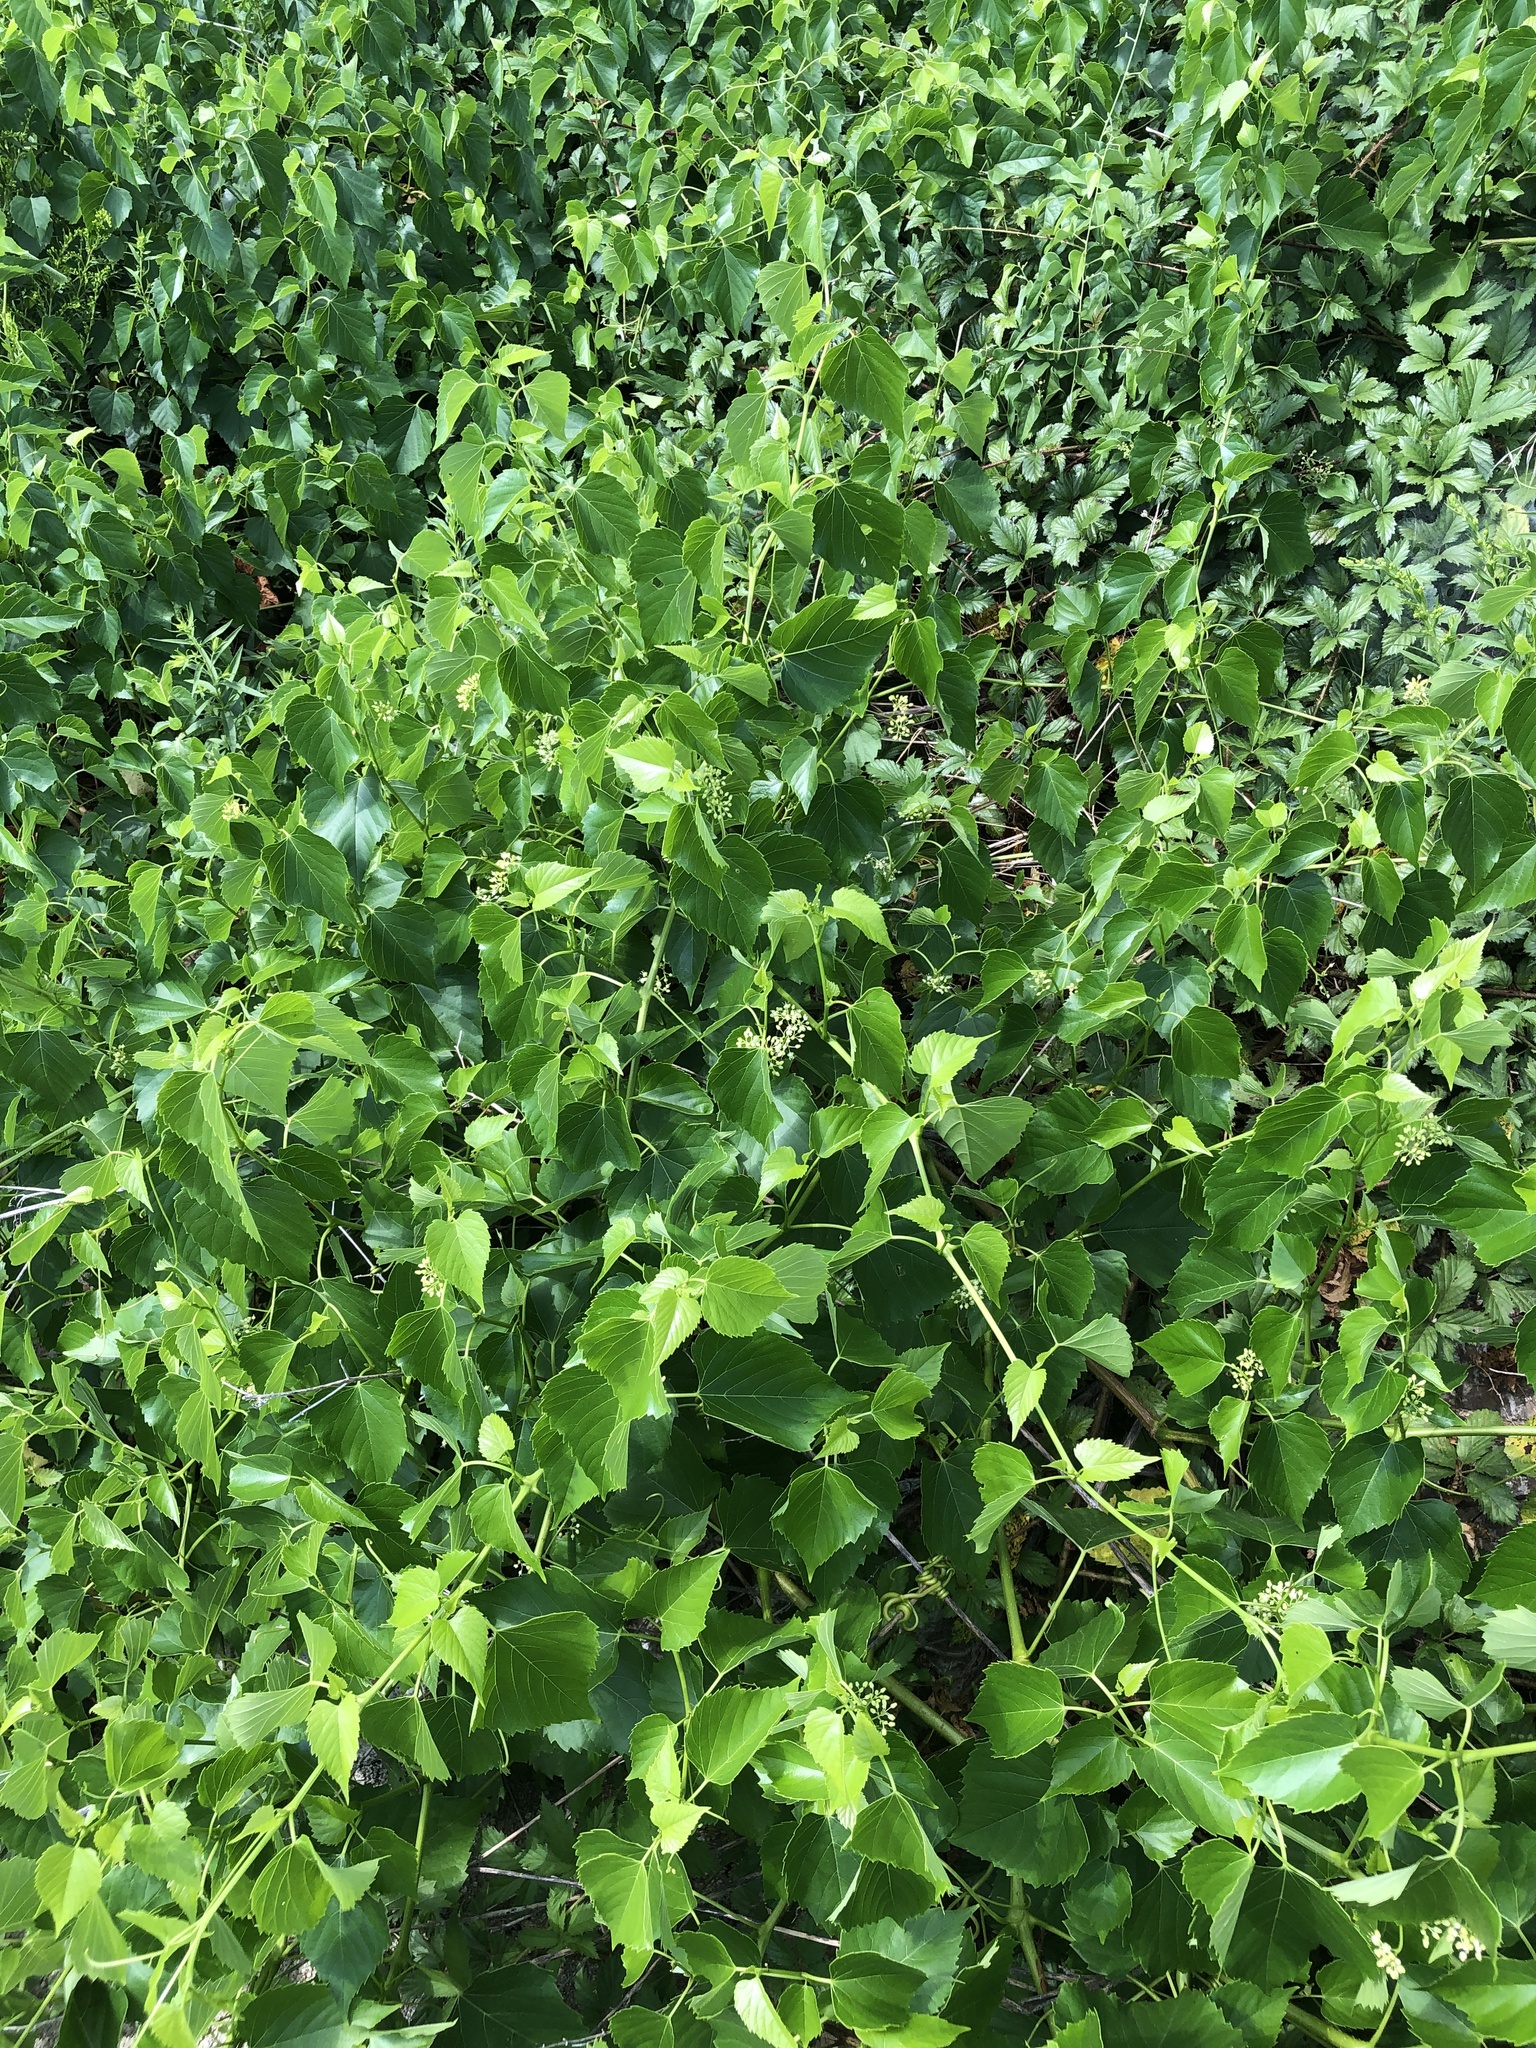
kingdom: Plantae
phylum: Tracheophyta
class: Magnoliopsida
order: Vitales
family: Vitaceae
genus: Ampelopsis
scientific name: Ampelopsis cordata
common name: Heart-leaf ampelopsis
